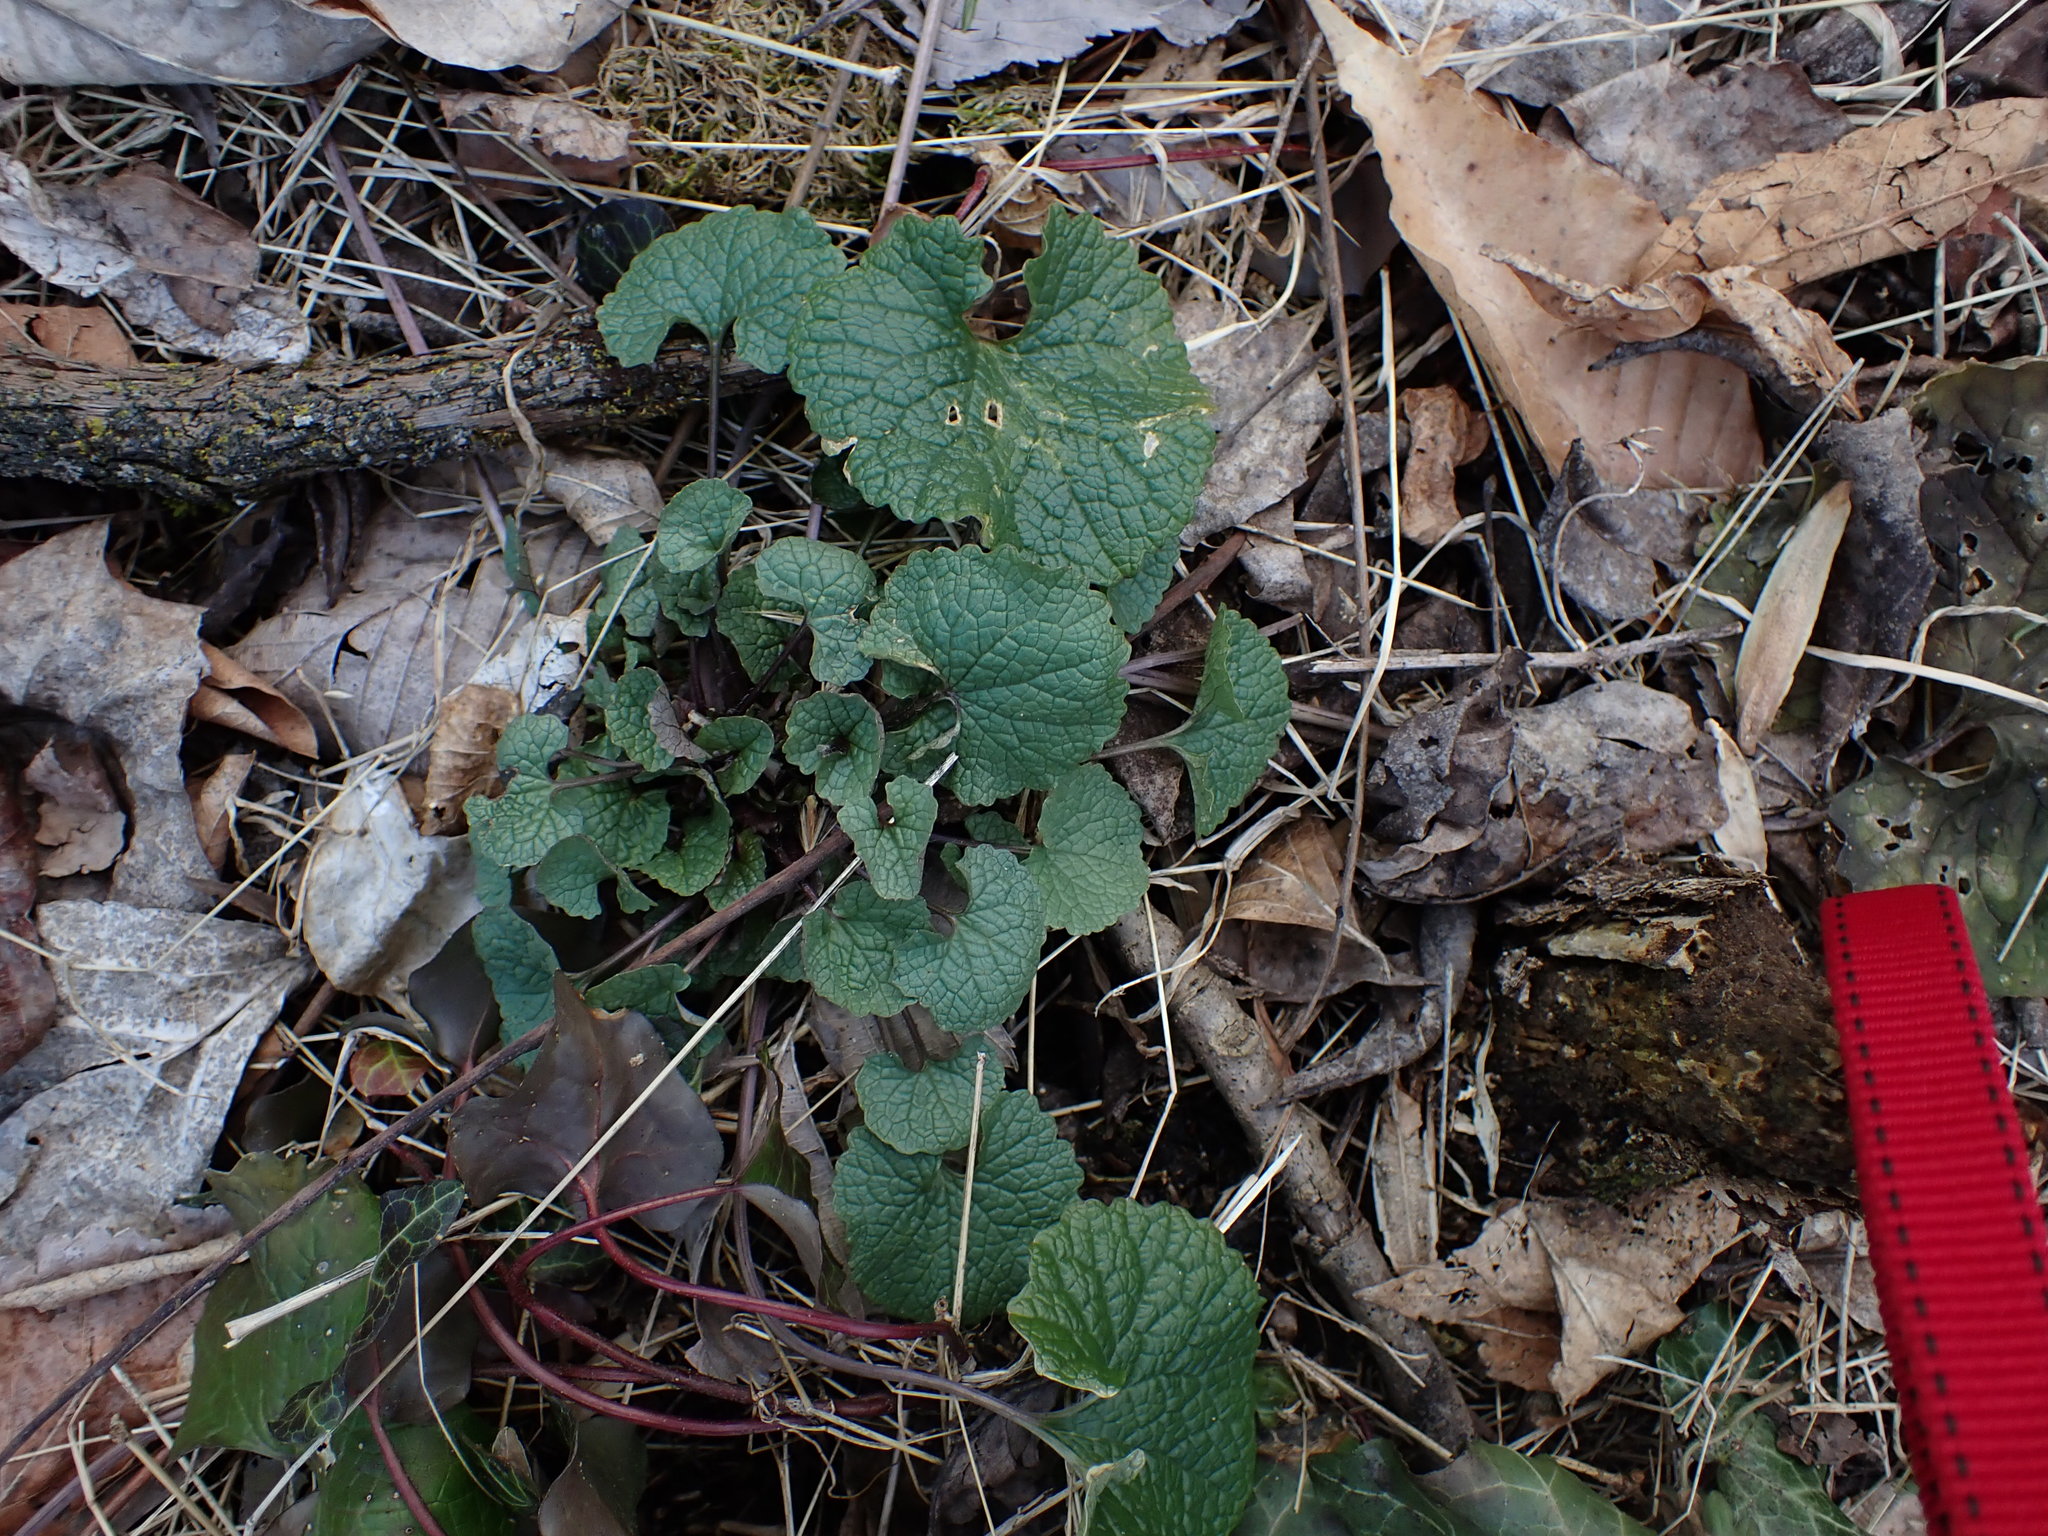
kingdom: Plantae
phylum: Tracheophyta
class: Magnoliopsida
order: Brassicales
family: Brassicaceae
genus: Alliaria
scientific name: Alliaria petiolata
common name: Garlic mustard
